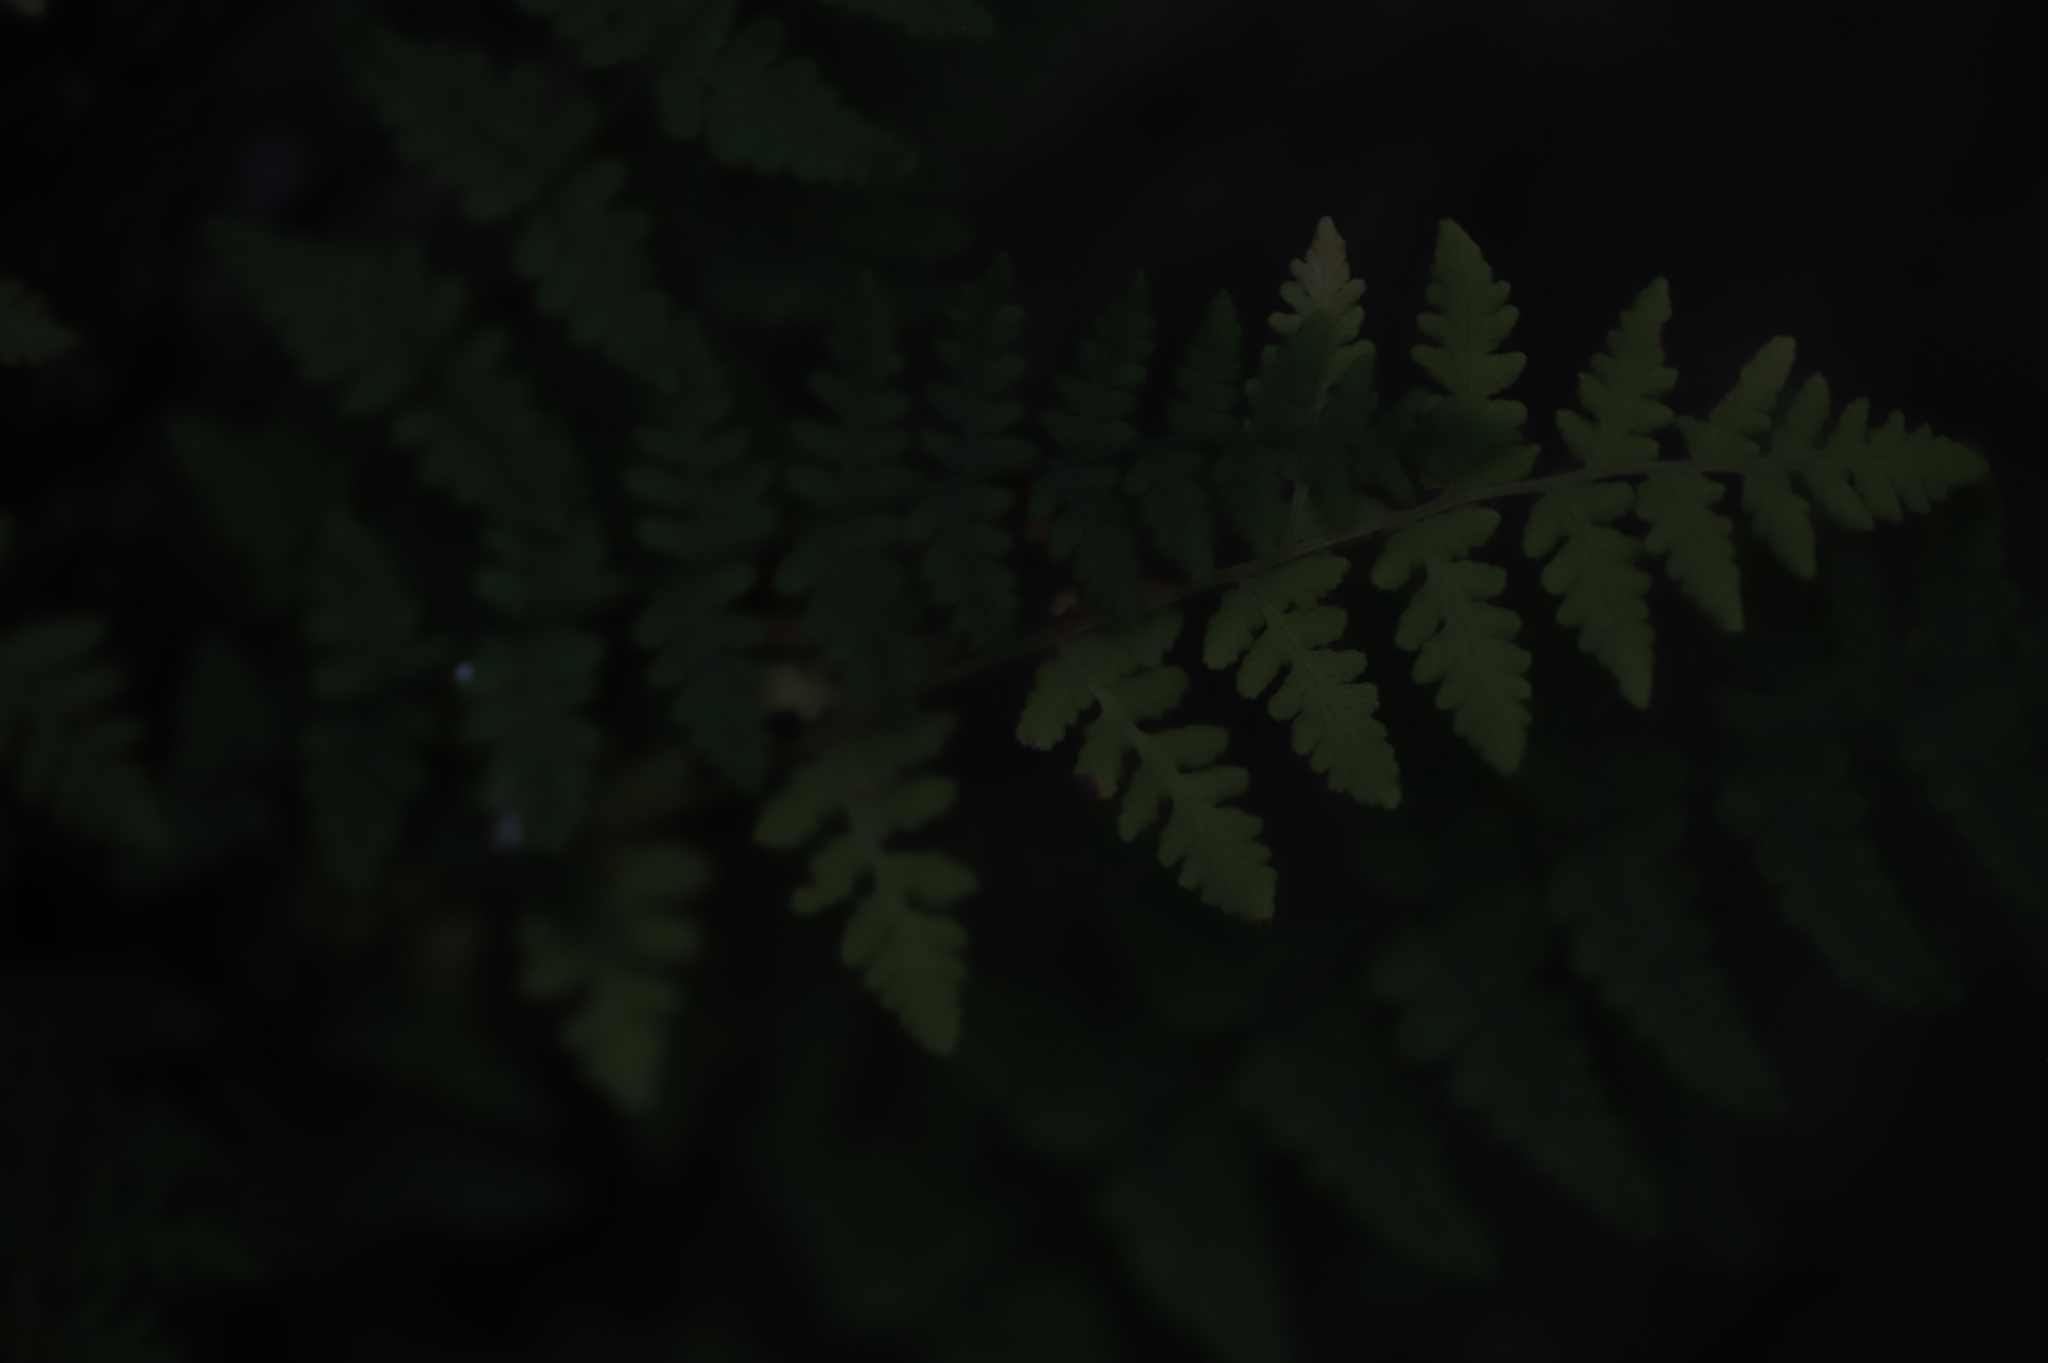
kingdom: Plantae
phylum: Tracheophyta
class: Polypodiopsida
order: Polypodiales
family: Woodsiaceae
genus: Physematium
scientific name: Physematium obtusum
